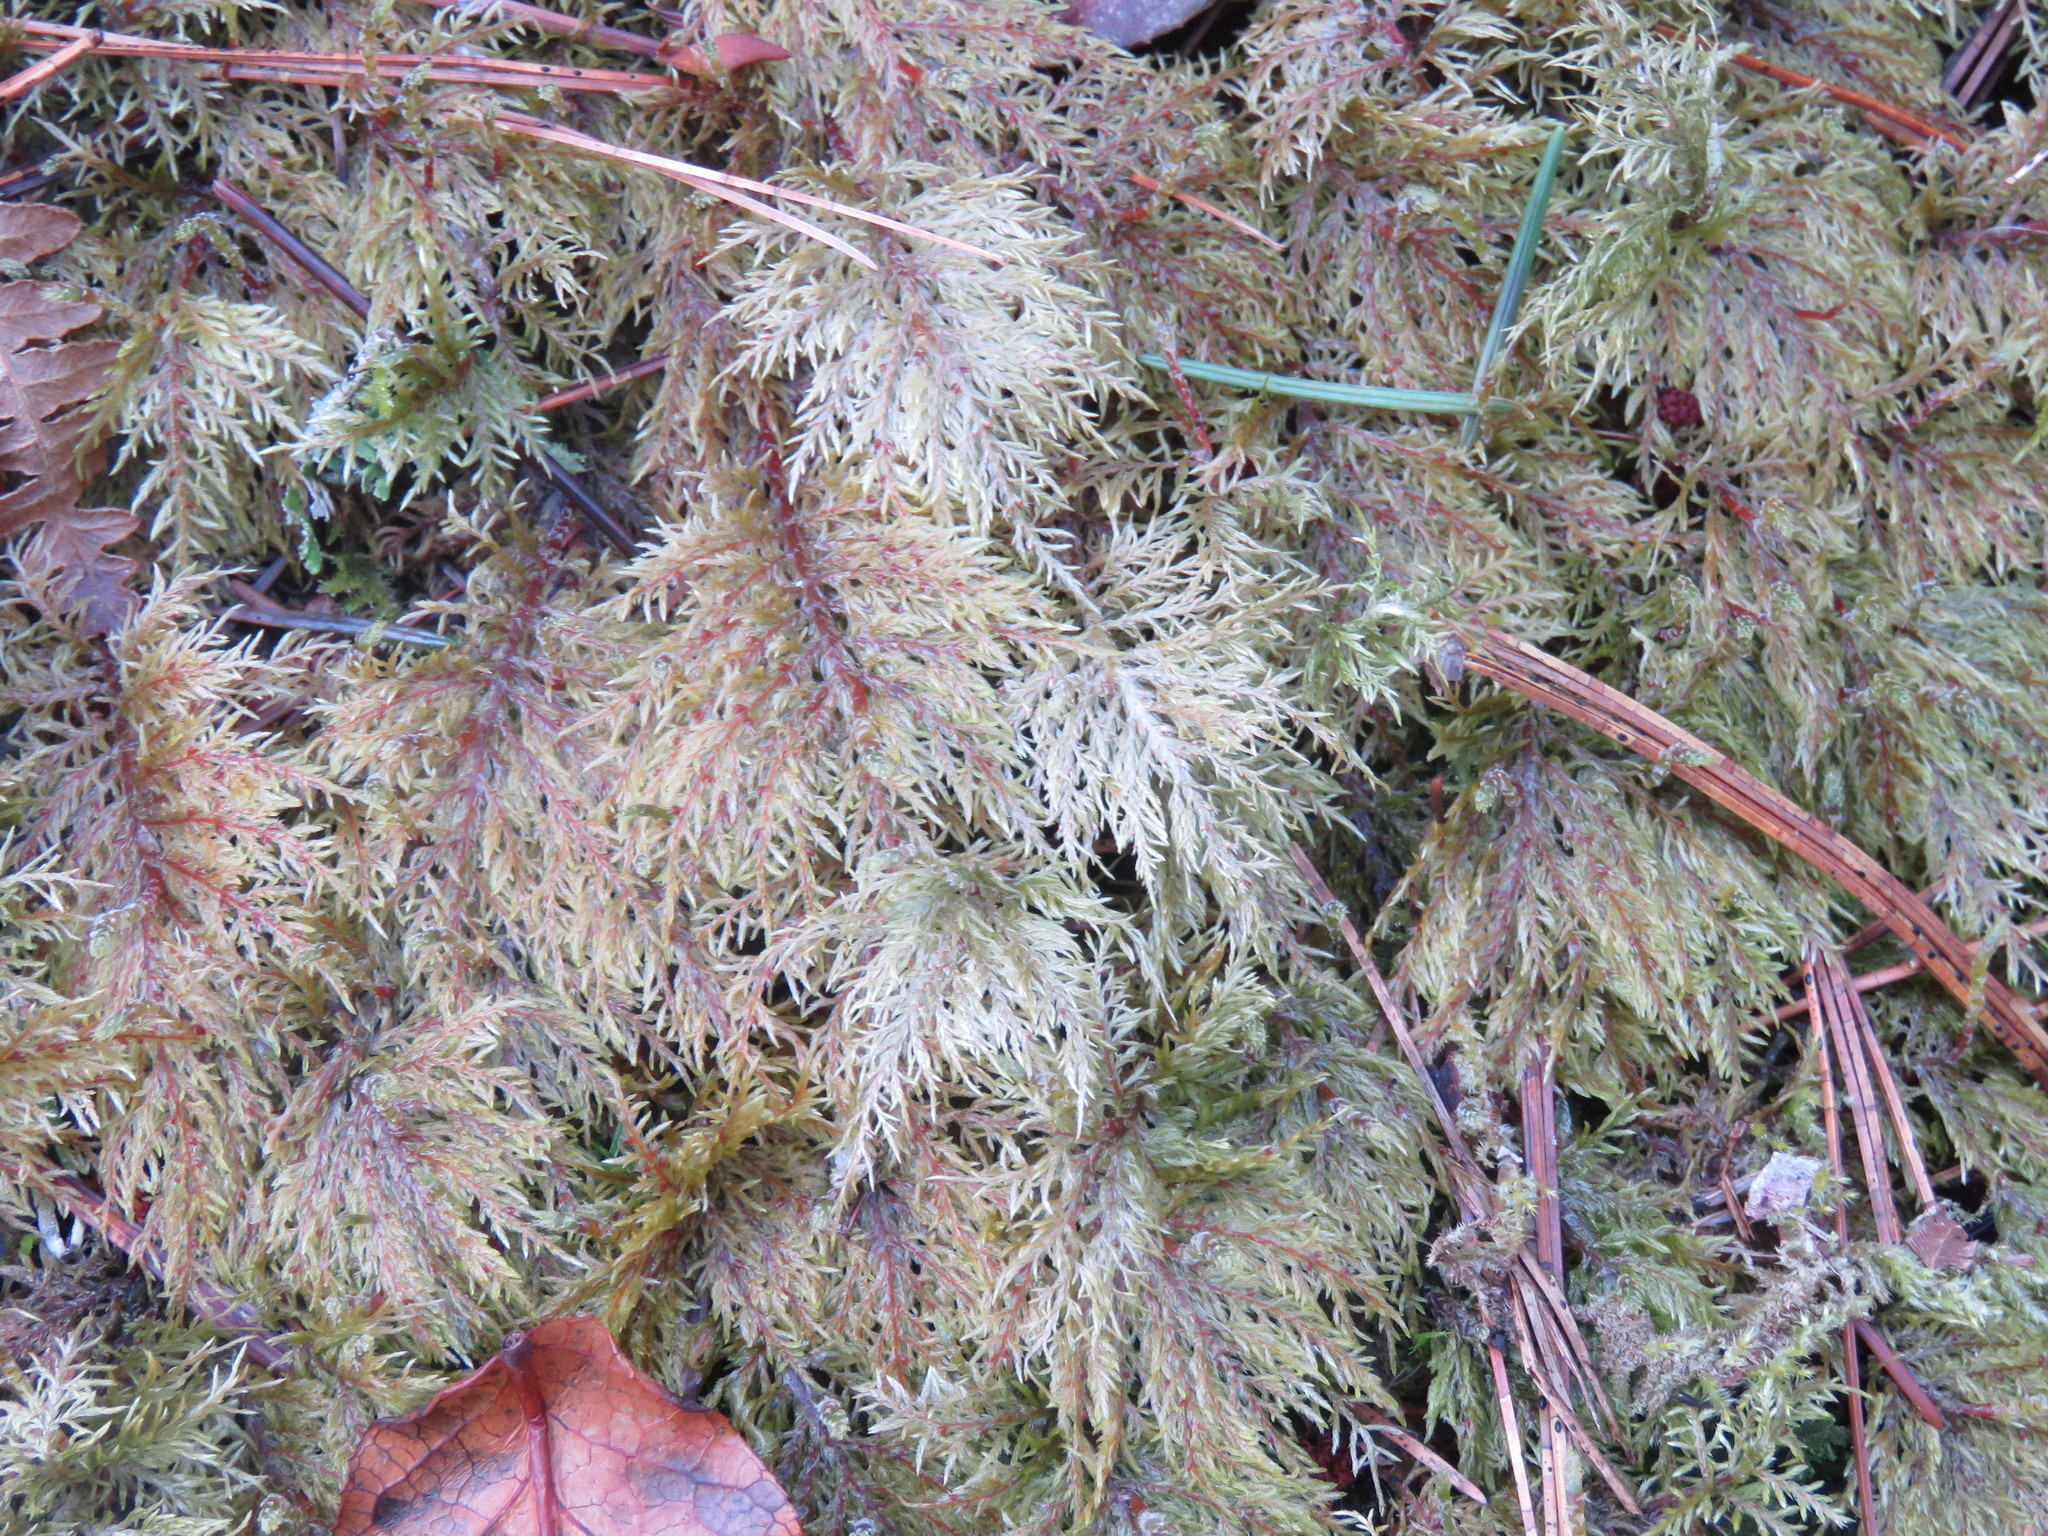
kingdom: Plantae
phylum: Bryophyta
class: Bryopsida
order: Hypnales
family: Hylocomiaceae
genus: Hylocomium
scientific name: Hylocomium splendens
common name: Stairstep moss
